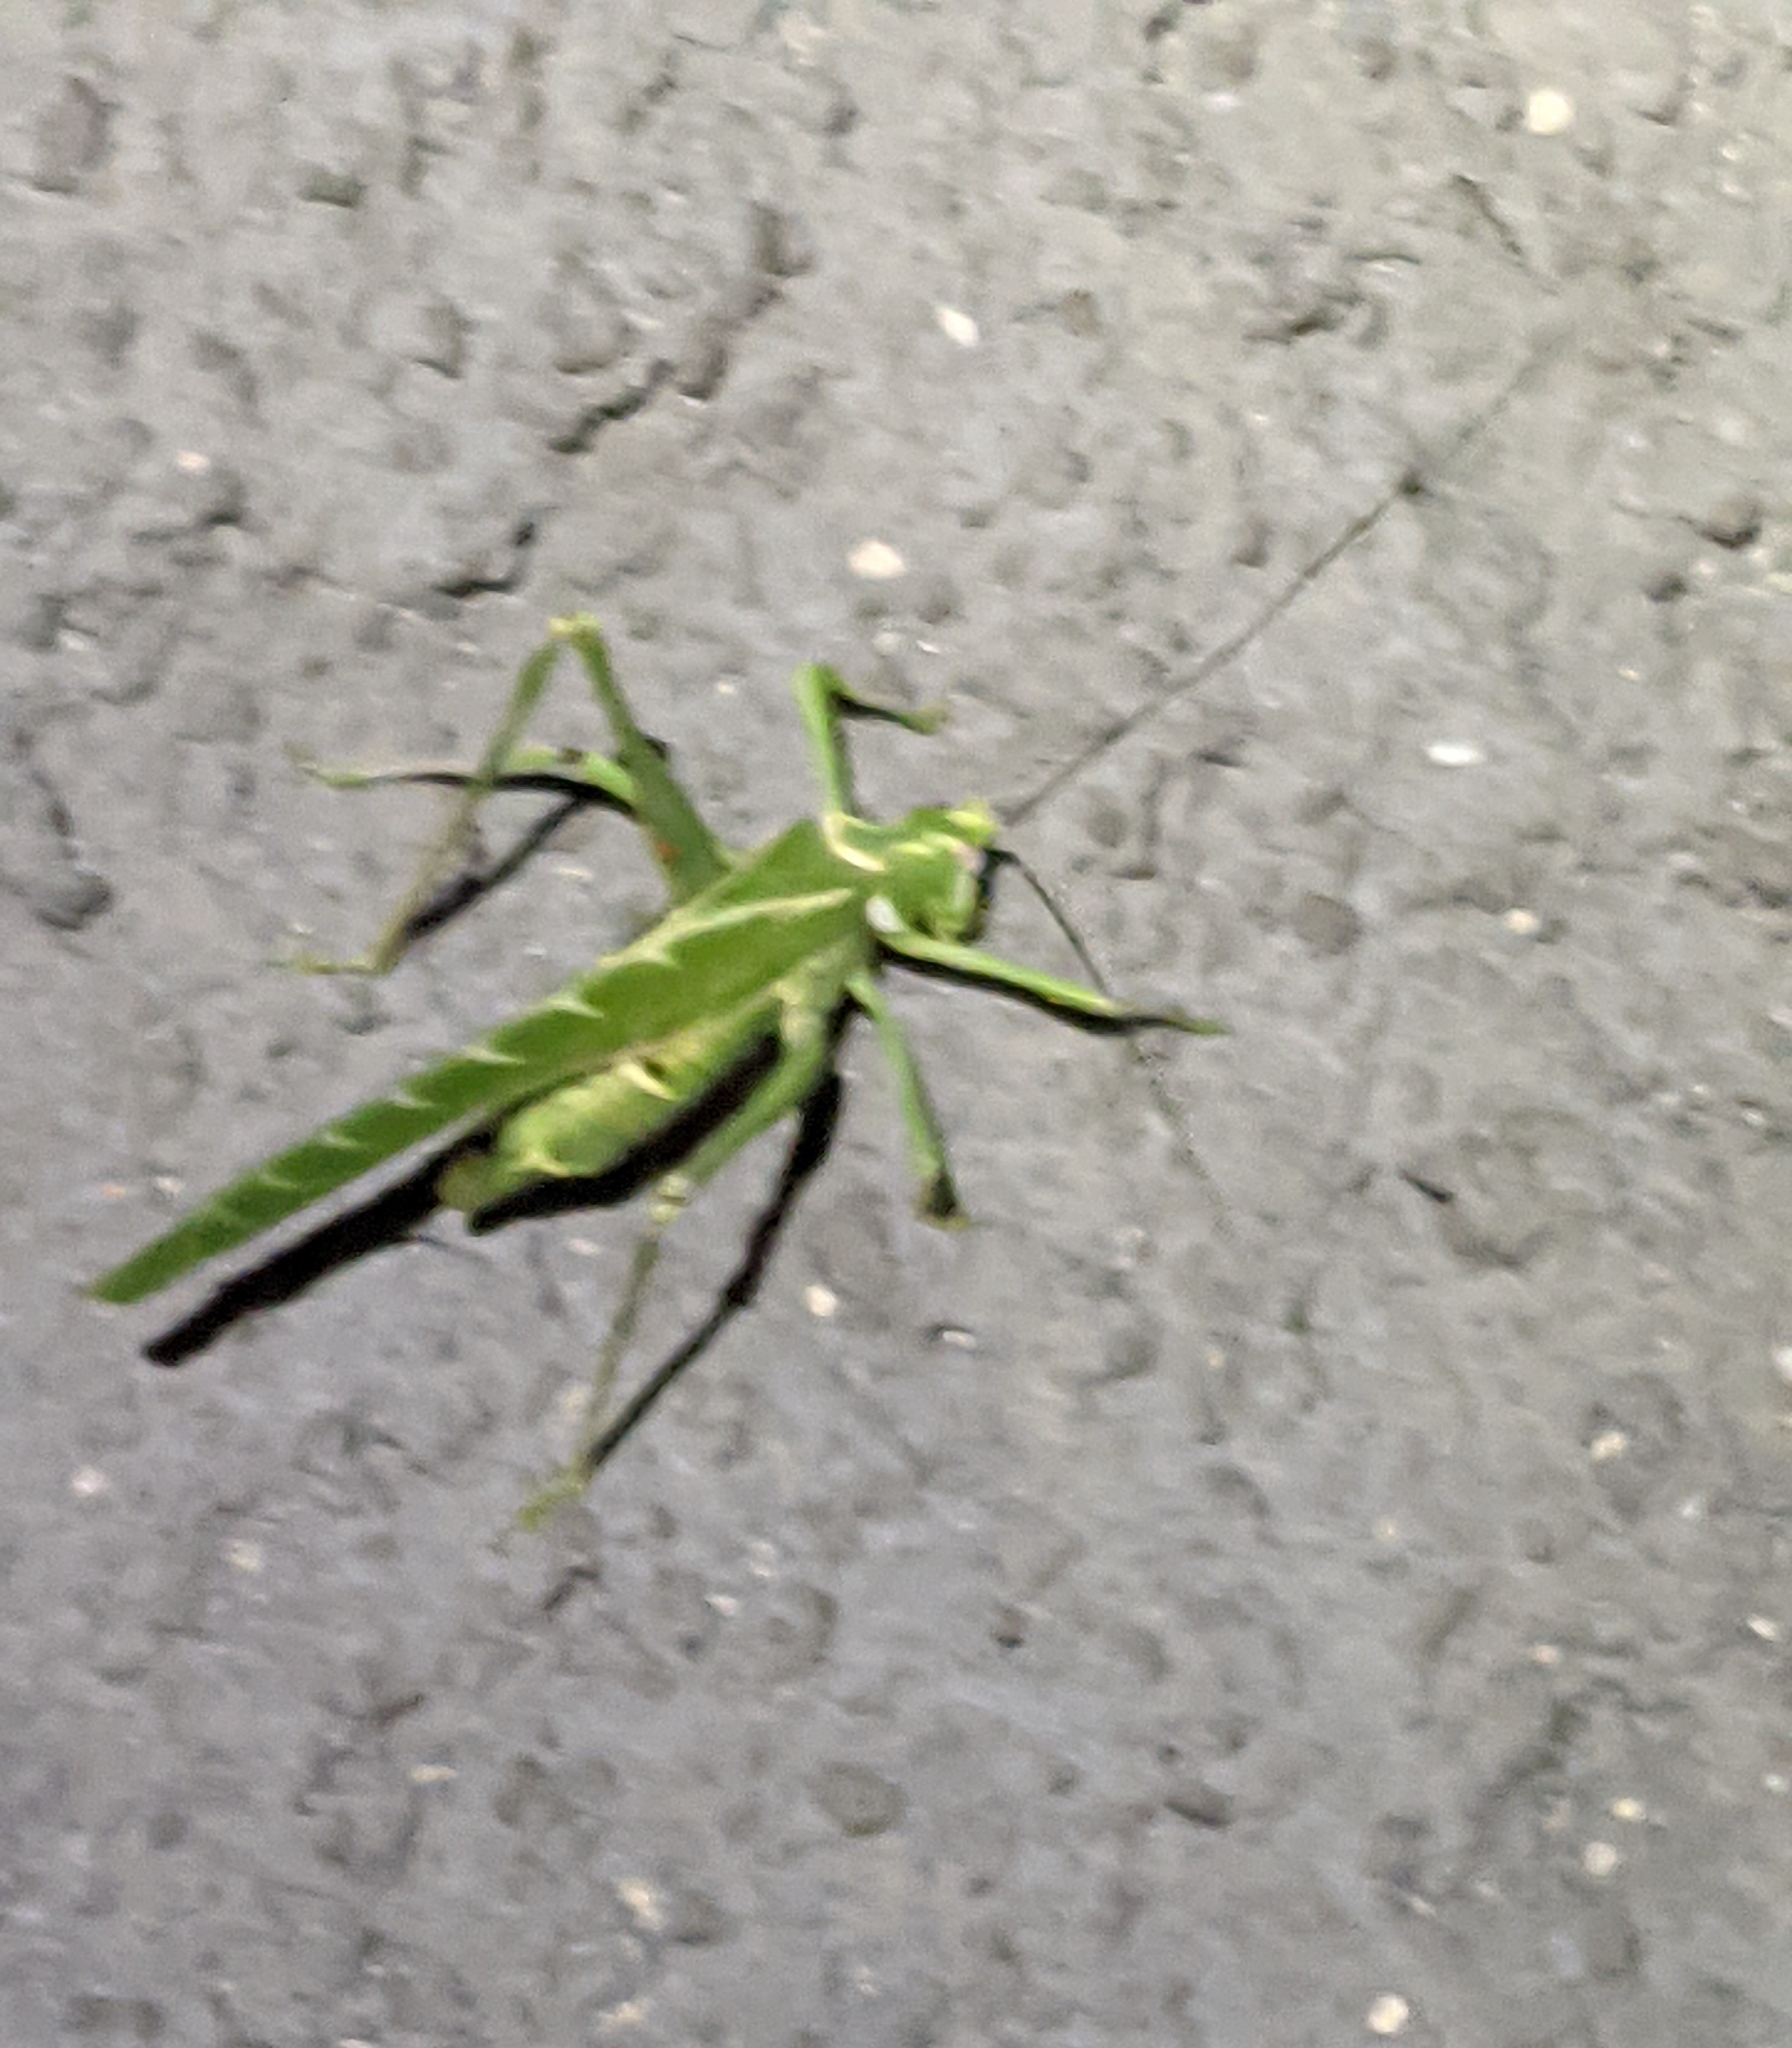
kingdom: Animalia
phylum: Arthropoda
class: Insecta
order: Orthoptera
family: Tettigoniidae
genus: Insara
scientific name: Insara elegans
